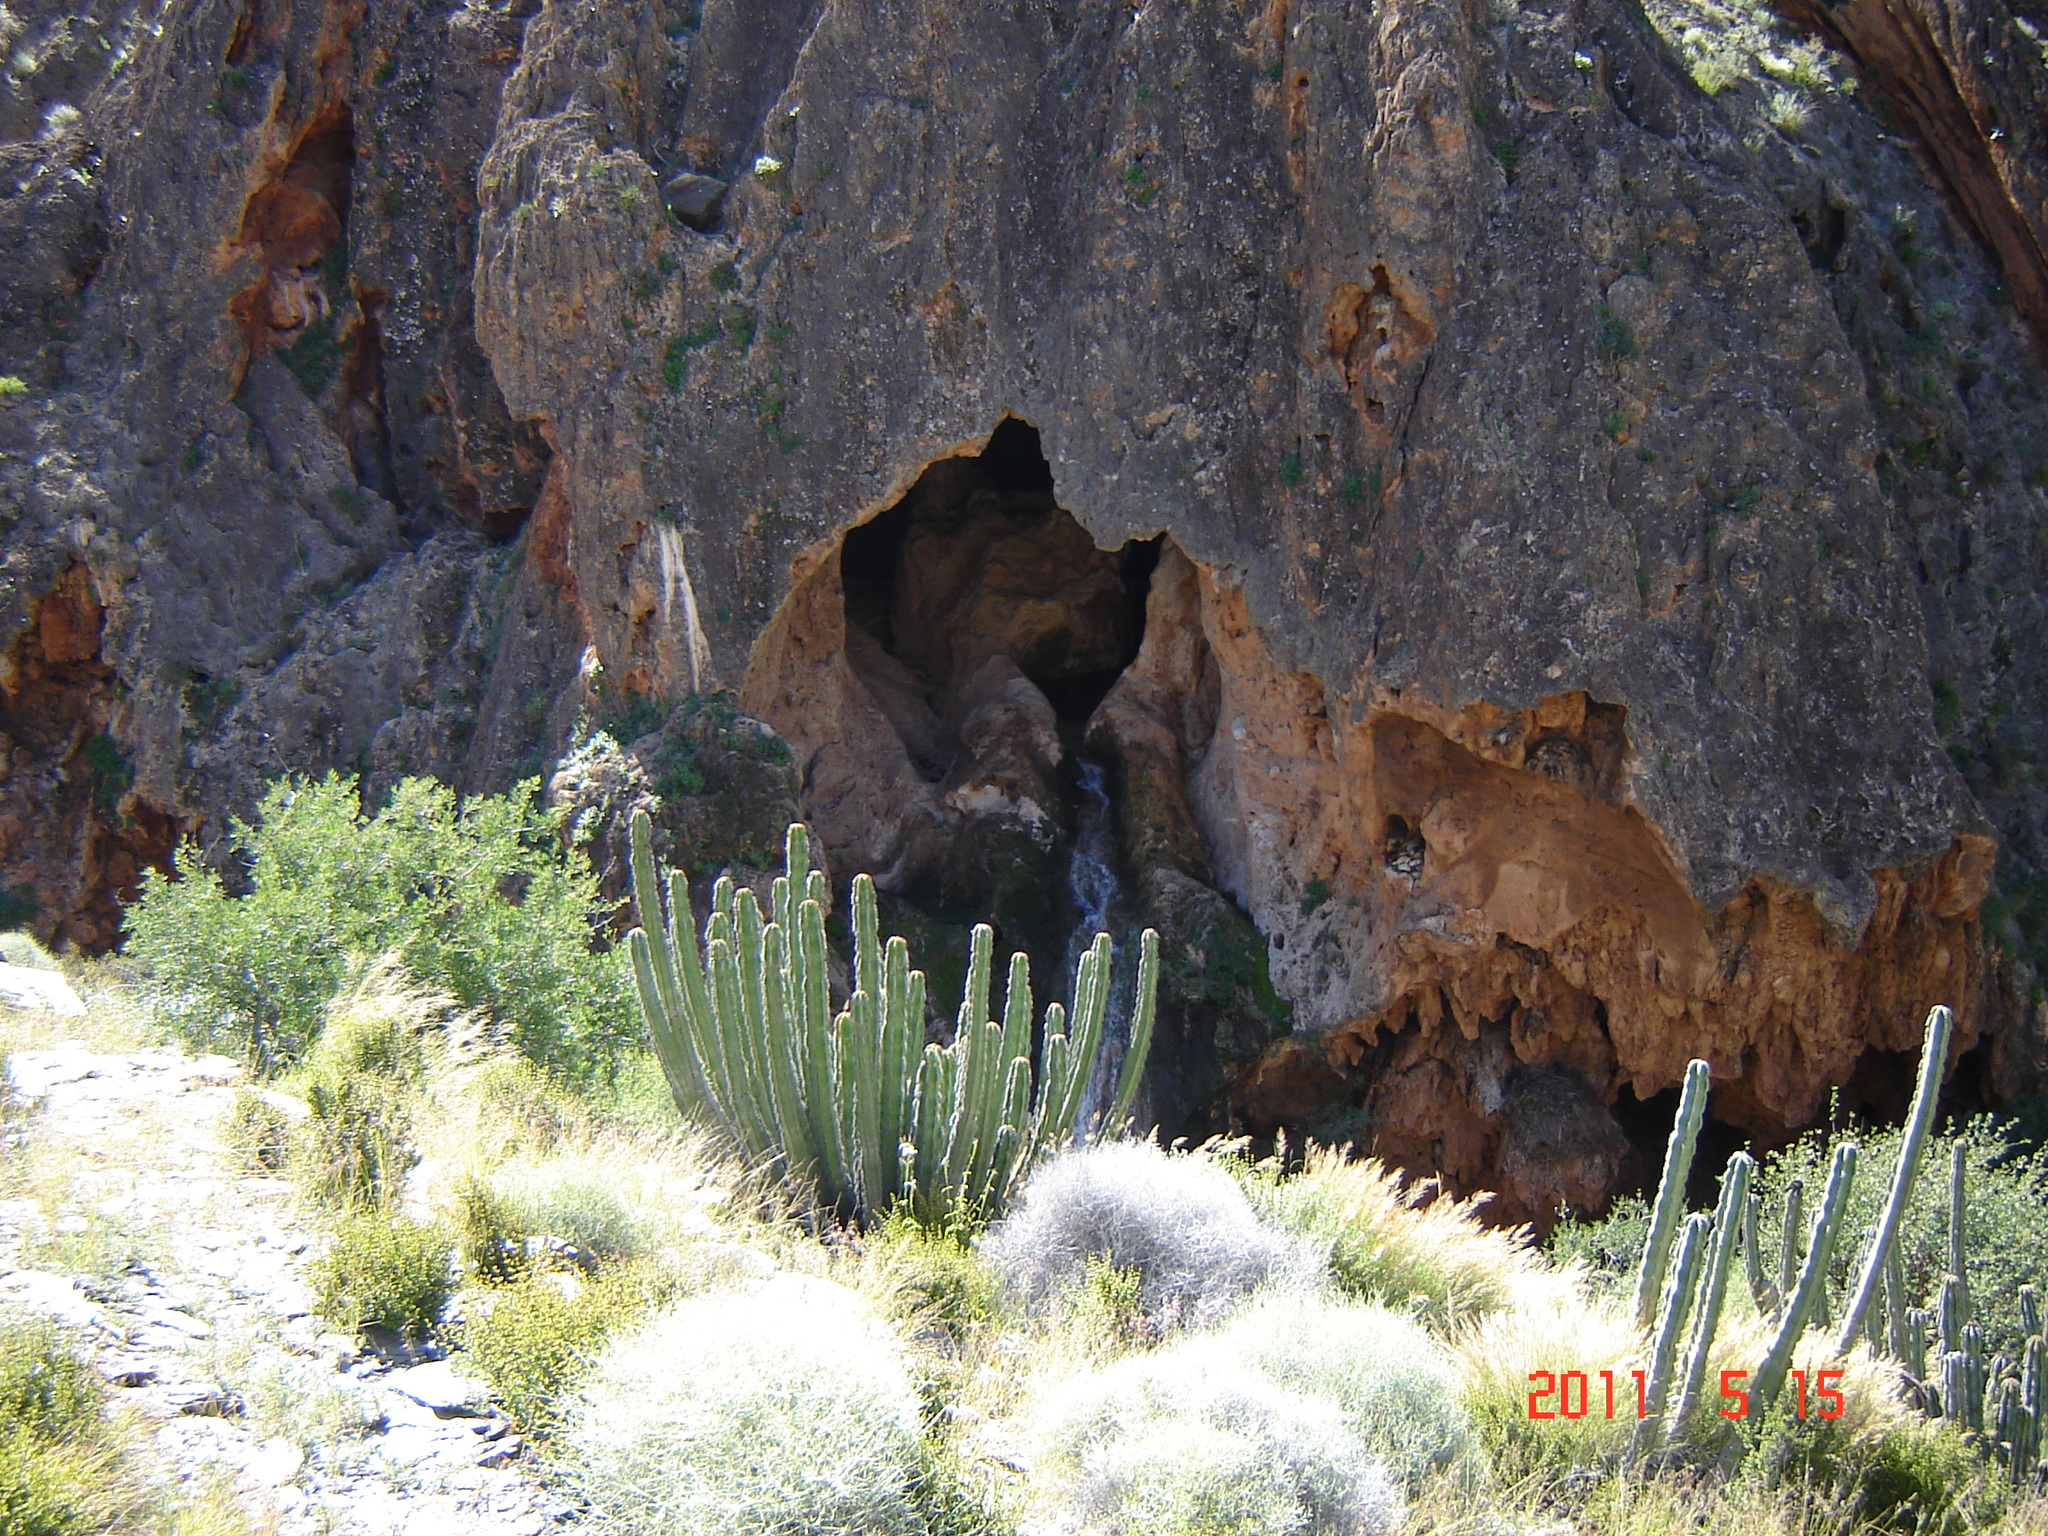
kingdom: Plantae
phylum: Tracheophyta
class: Magnoliopsida
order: Malpighiales
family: Euphorbiaceae
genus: Euphorbia
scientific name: Euphorbia virosa
